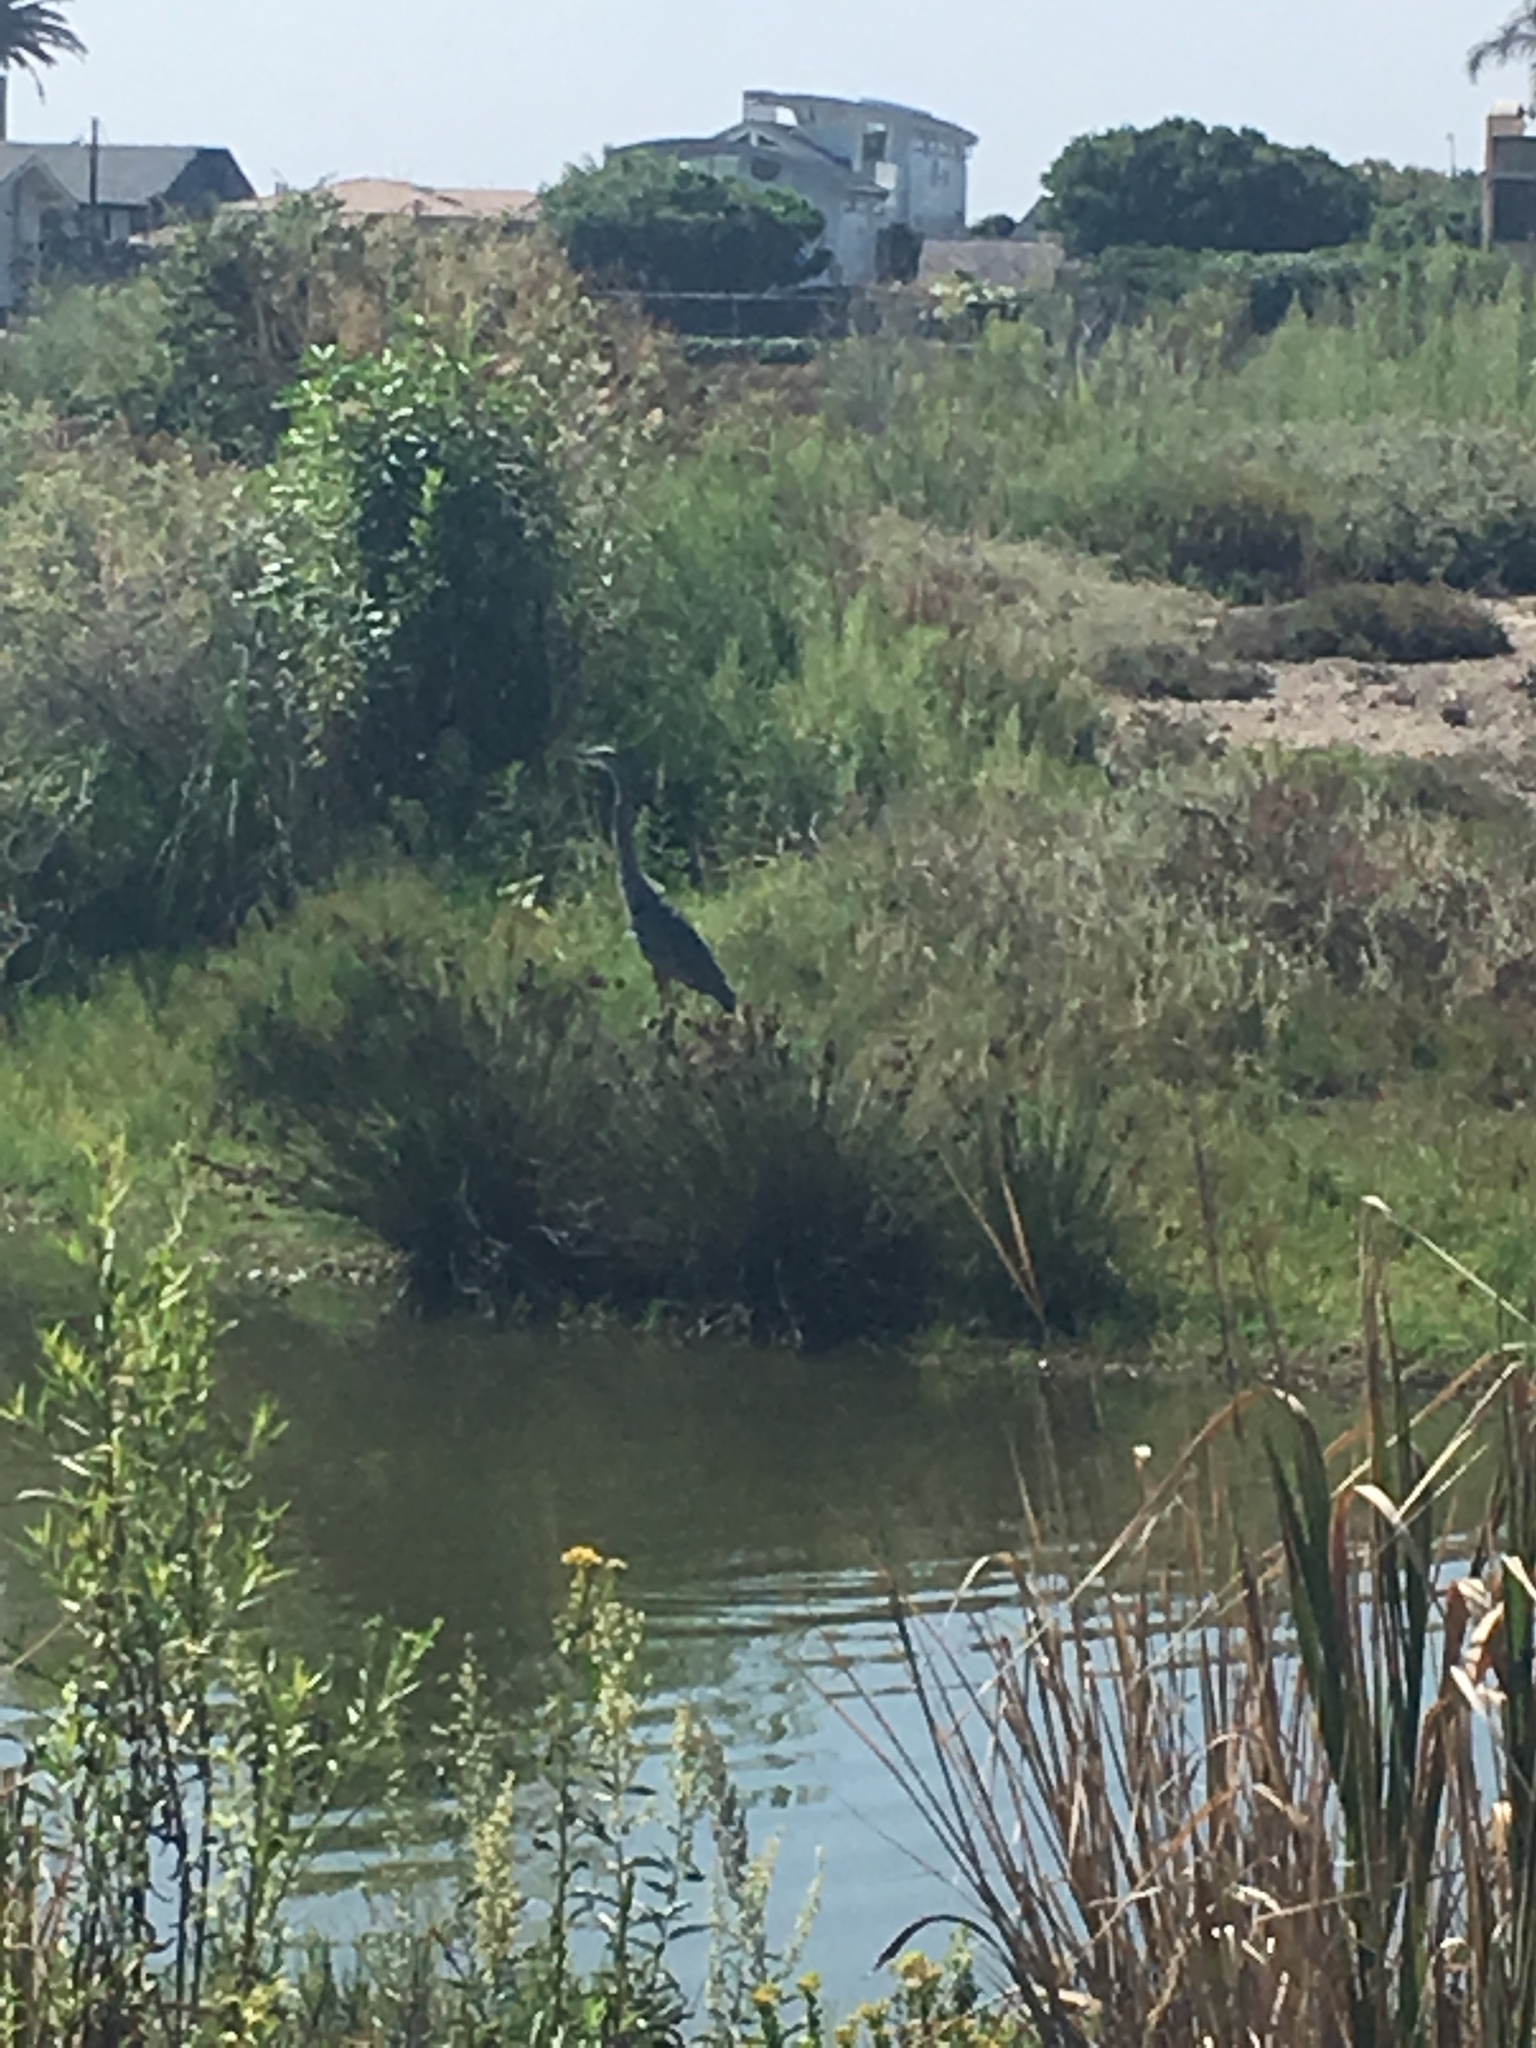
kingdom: Animalia
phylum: Chordata
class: Aves
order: Pelecaniformes
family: Ardeidae
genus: Ardea
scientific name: Ardea herodias
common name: Great blue heron
